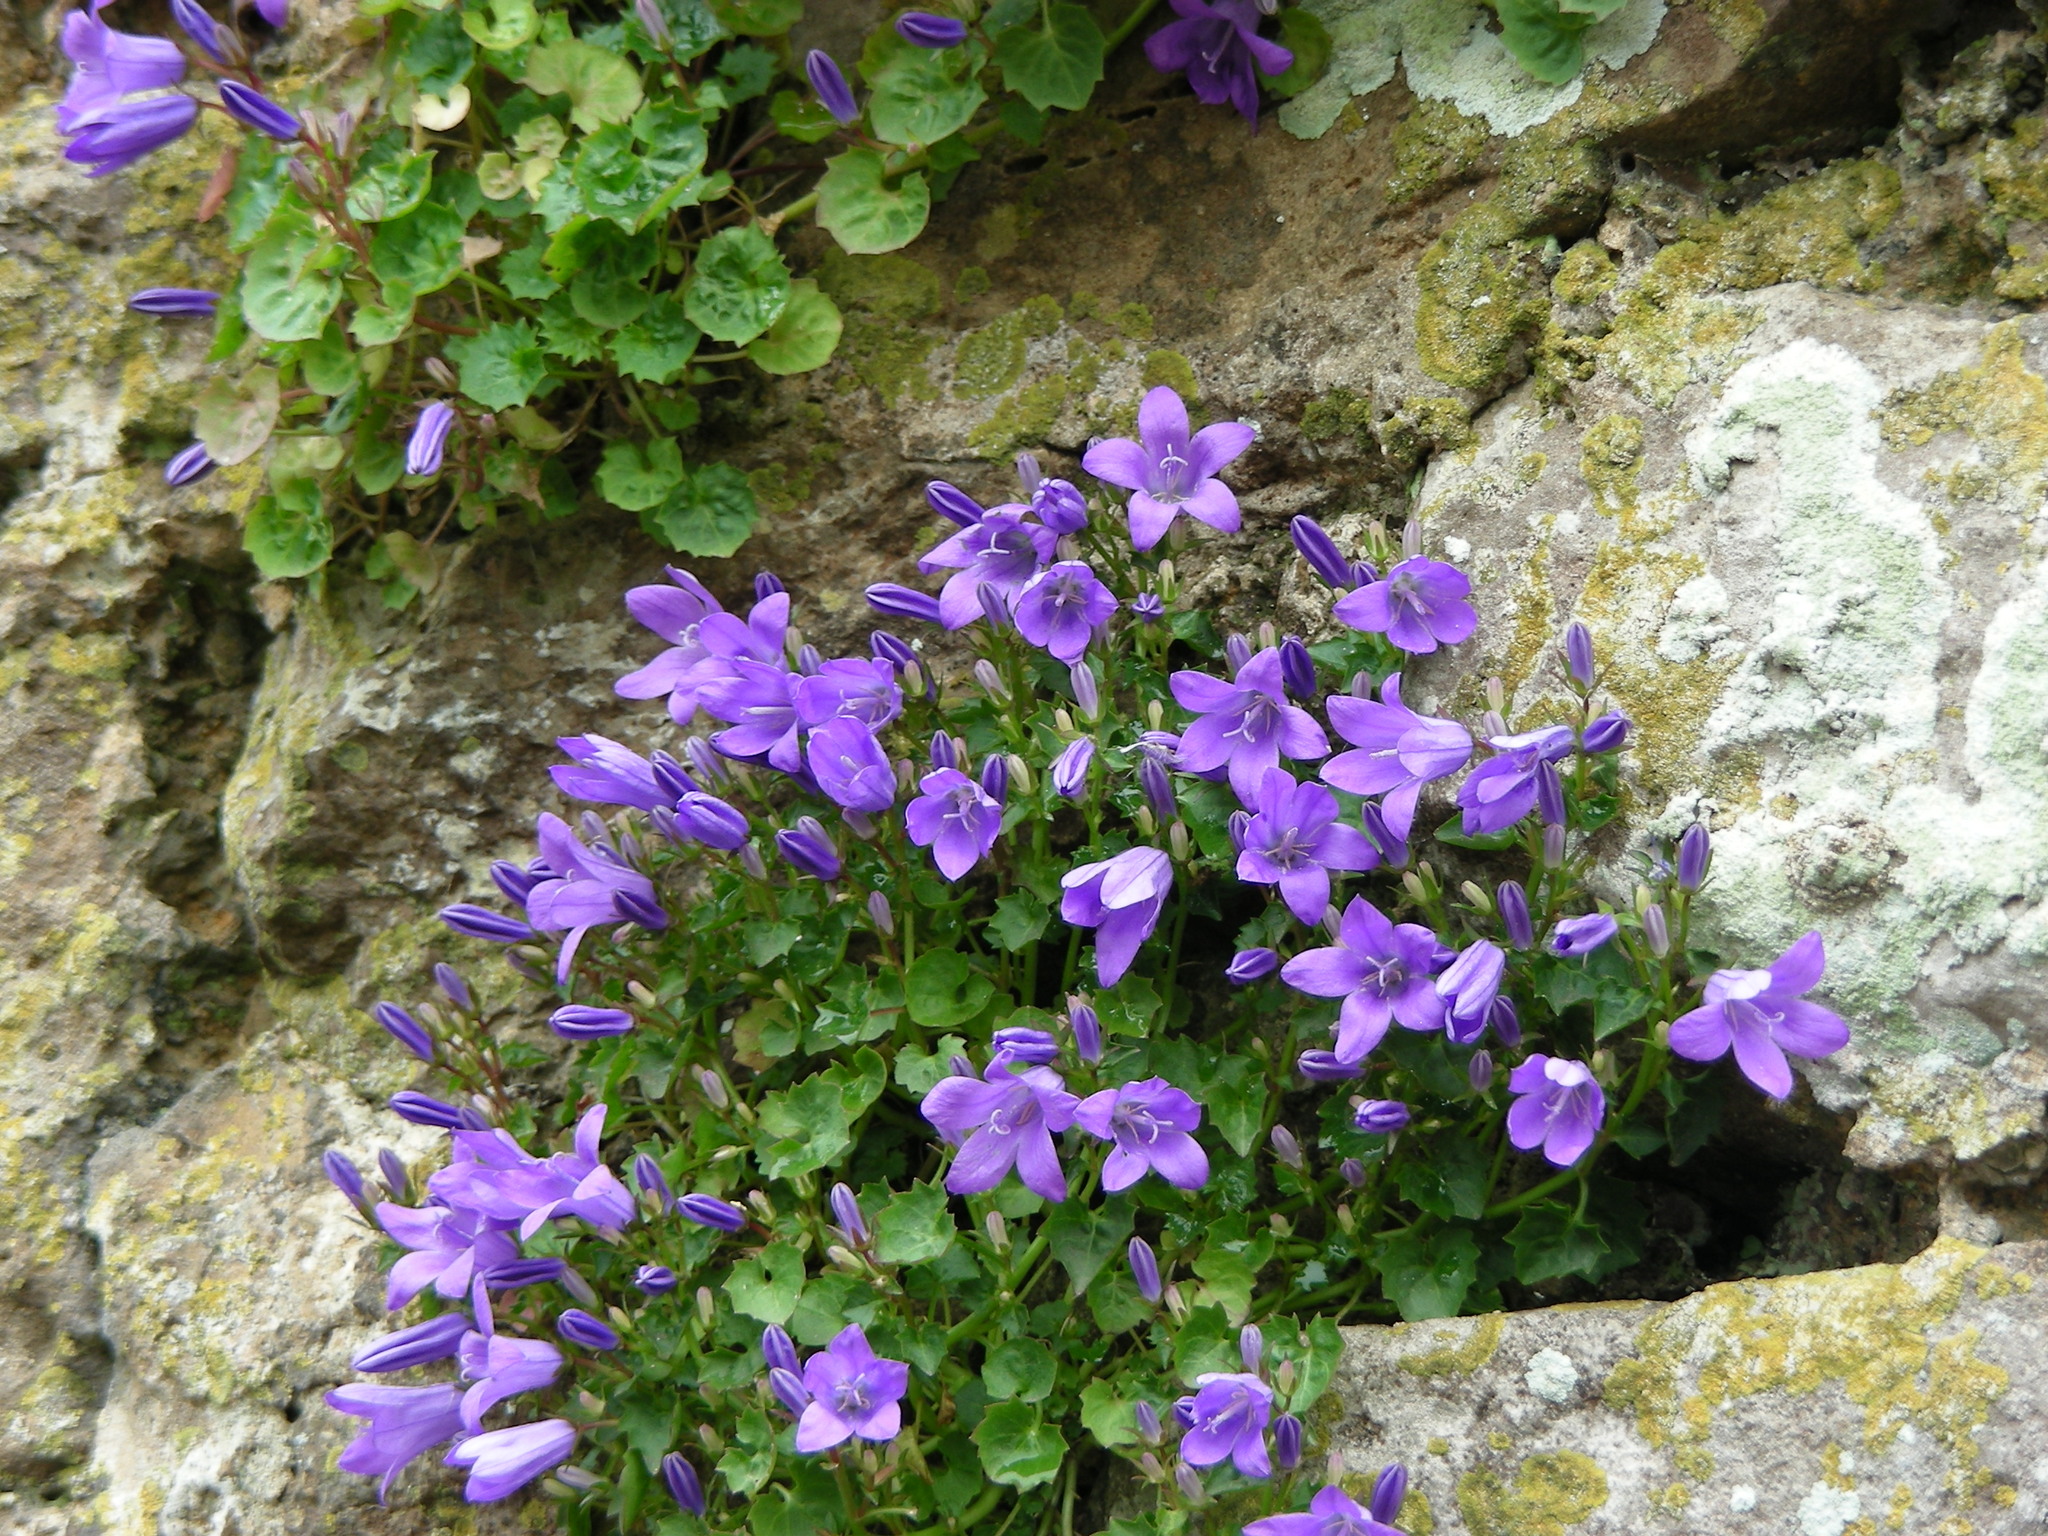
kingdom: Plantae
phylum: Tracheophyta
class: Magnoliopsida
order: Asterales
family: Campanulaceae
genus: Campanula
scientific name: Campanula portenschlagiana
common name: Adria bellflower
